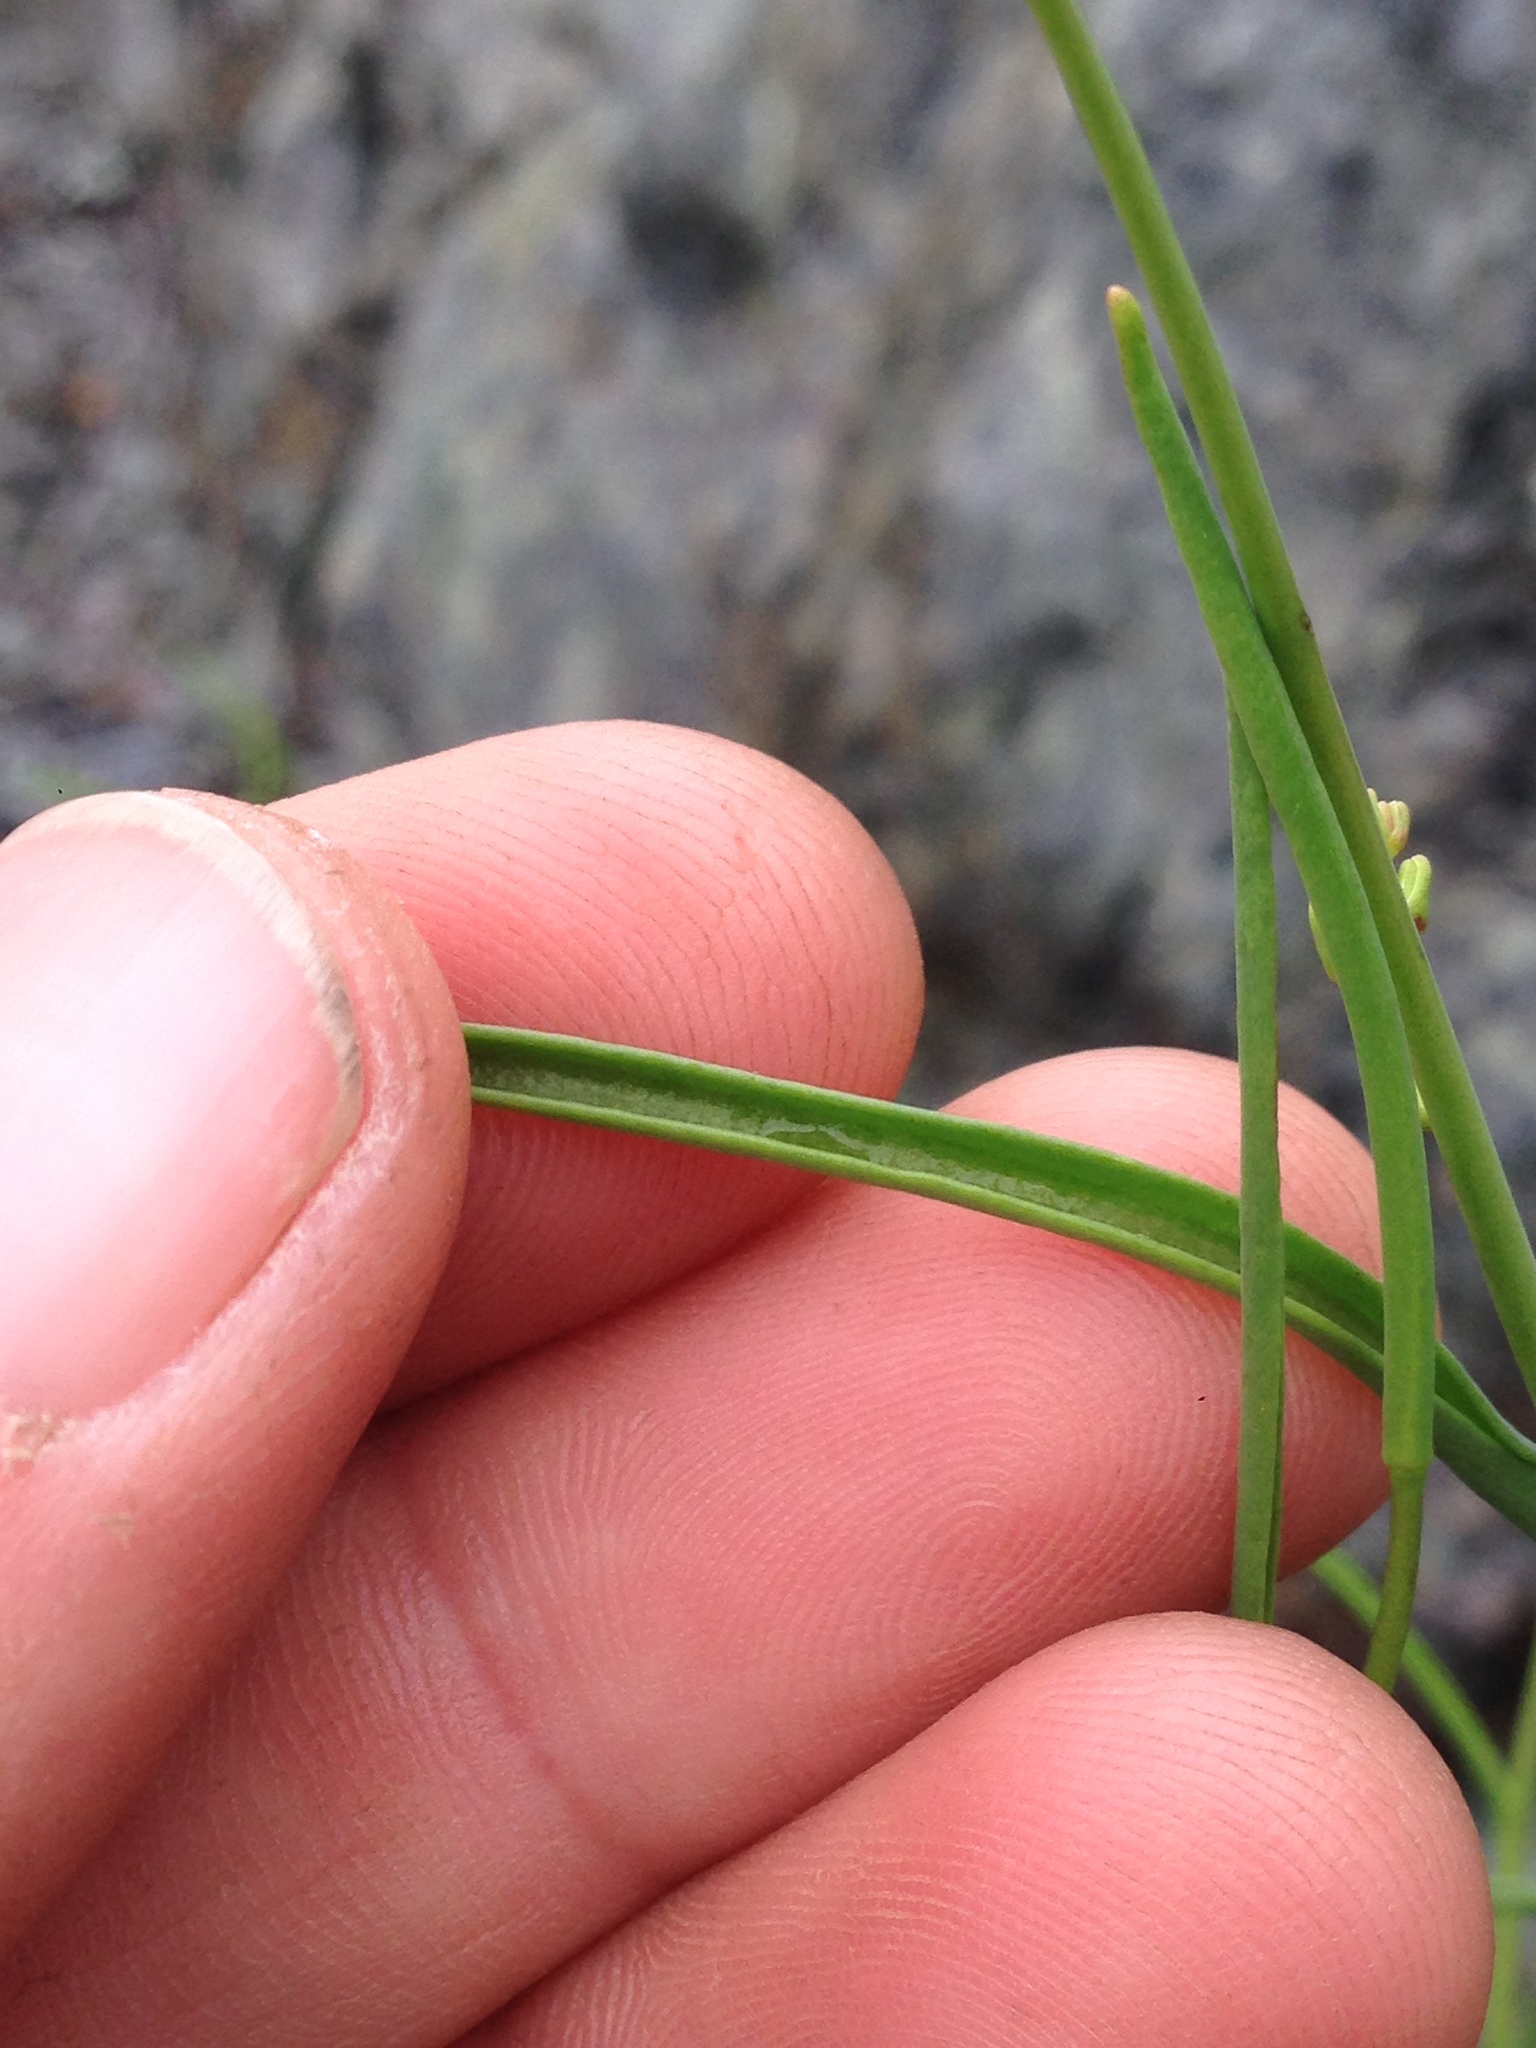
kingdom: Plantae
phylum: Tracheophyta
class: Magnoliopsida
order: Brassicales
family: Brassicaceae
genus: Streptanthus
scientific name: Streptanthus polygaloides
